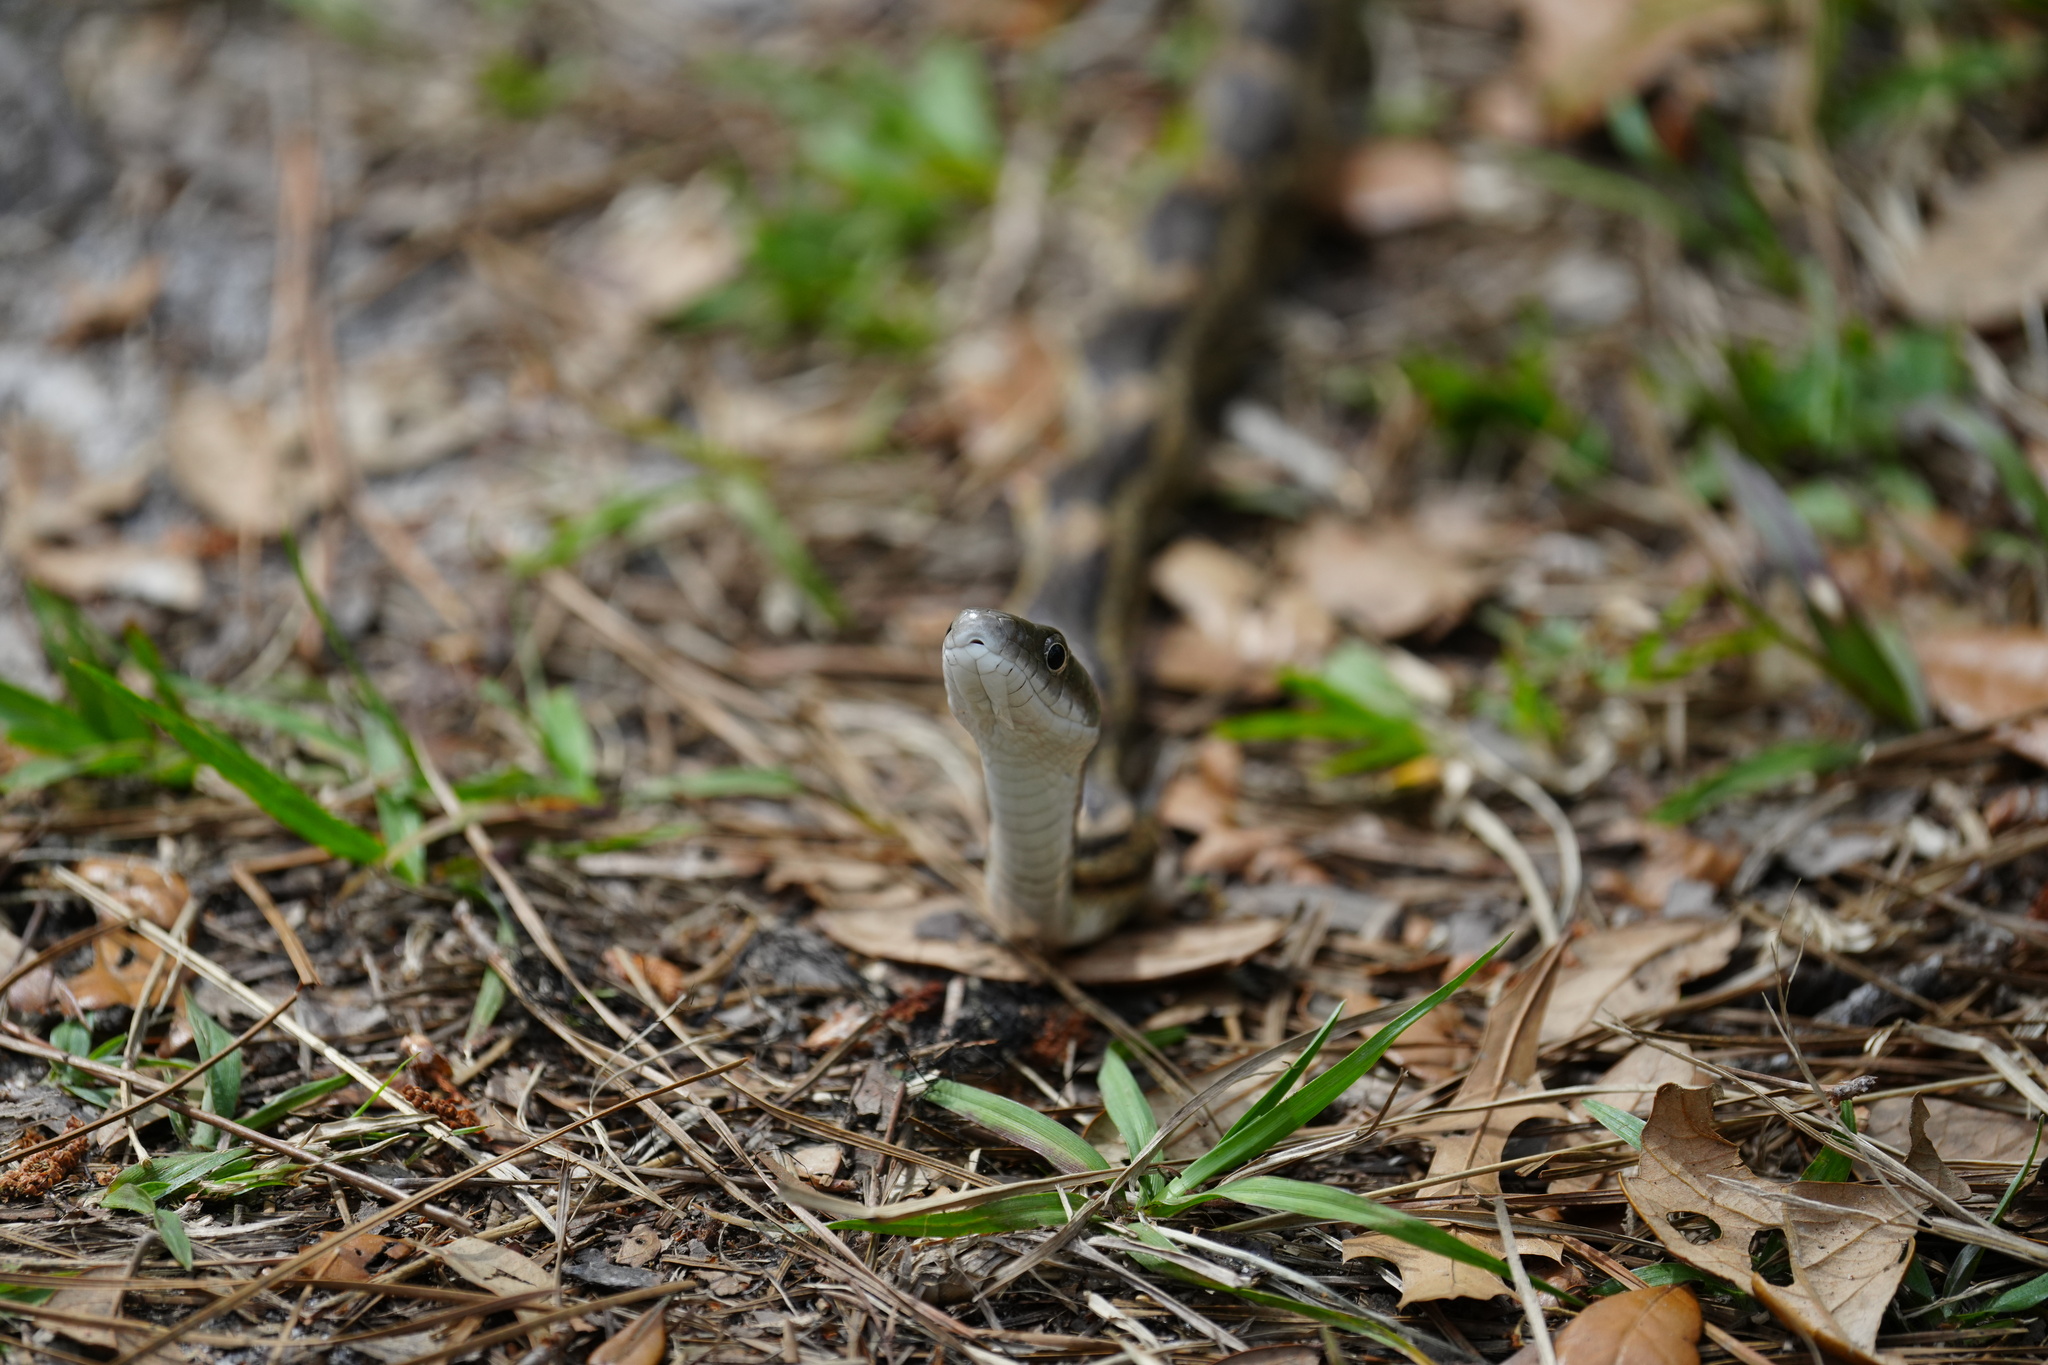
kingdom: Animalia
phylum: Chordata
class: Squamata
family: Colubridae
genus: Pantherophis
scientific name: Pantherophis spiloides
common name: Gray rat snake
